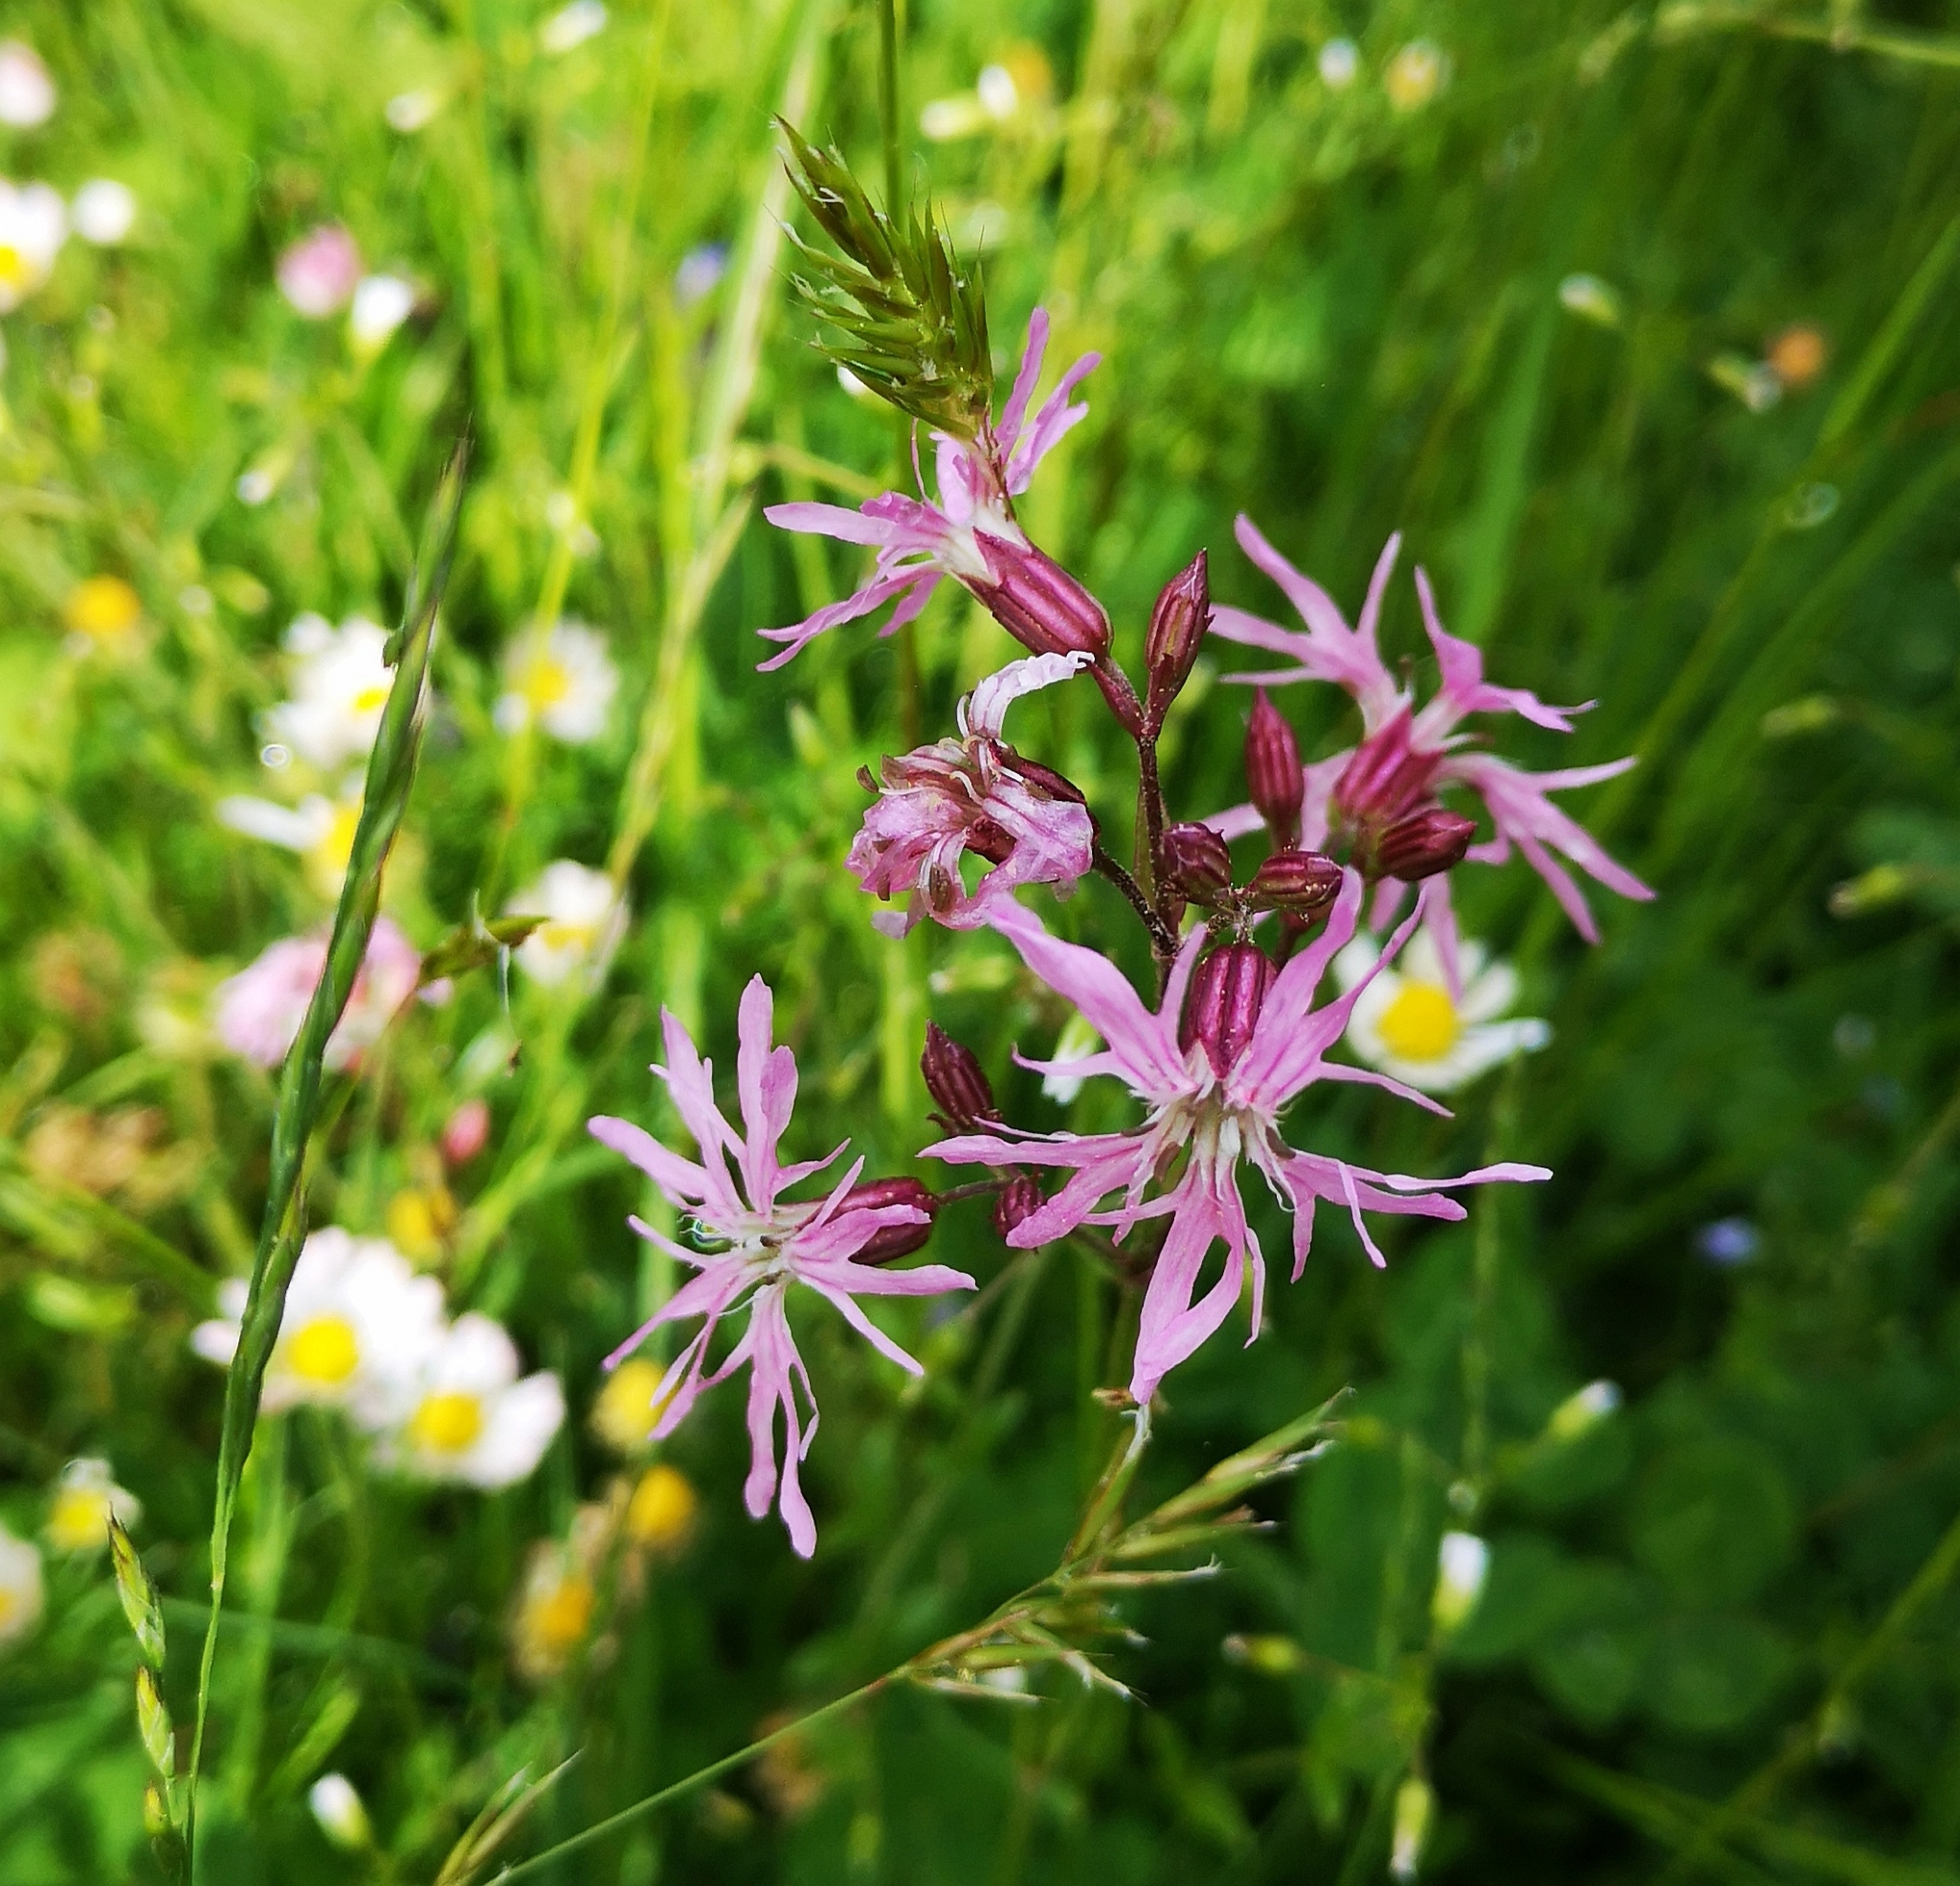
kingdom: Plantae
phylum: Tracheophyta
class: Magnoliopsida
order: Caryophyllales
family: Caryophyllaceae
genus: Silene
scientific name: Silene flos-cuculi
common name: Ragged-robin
